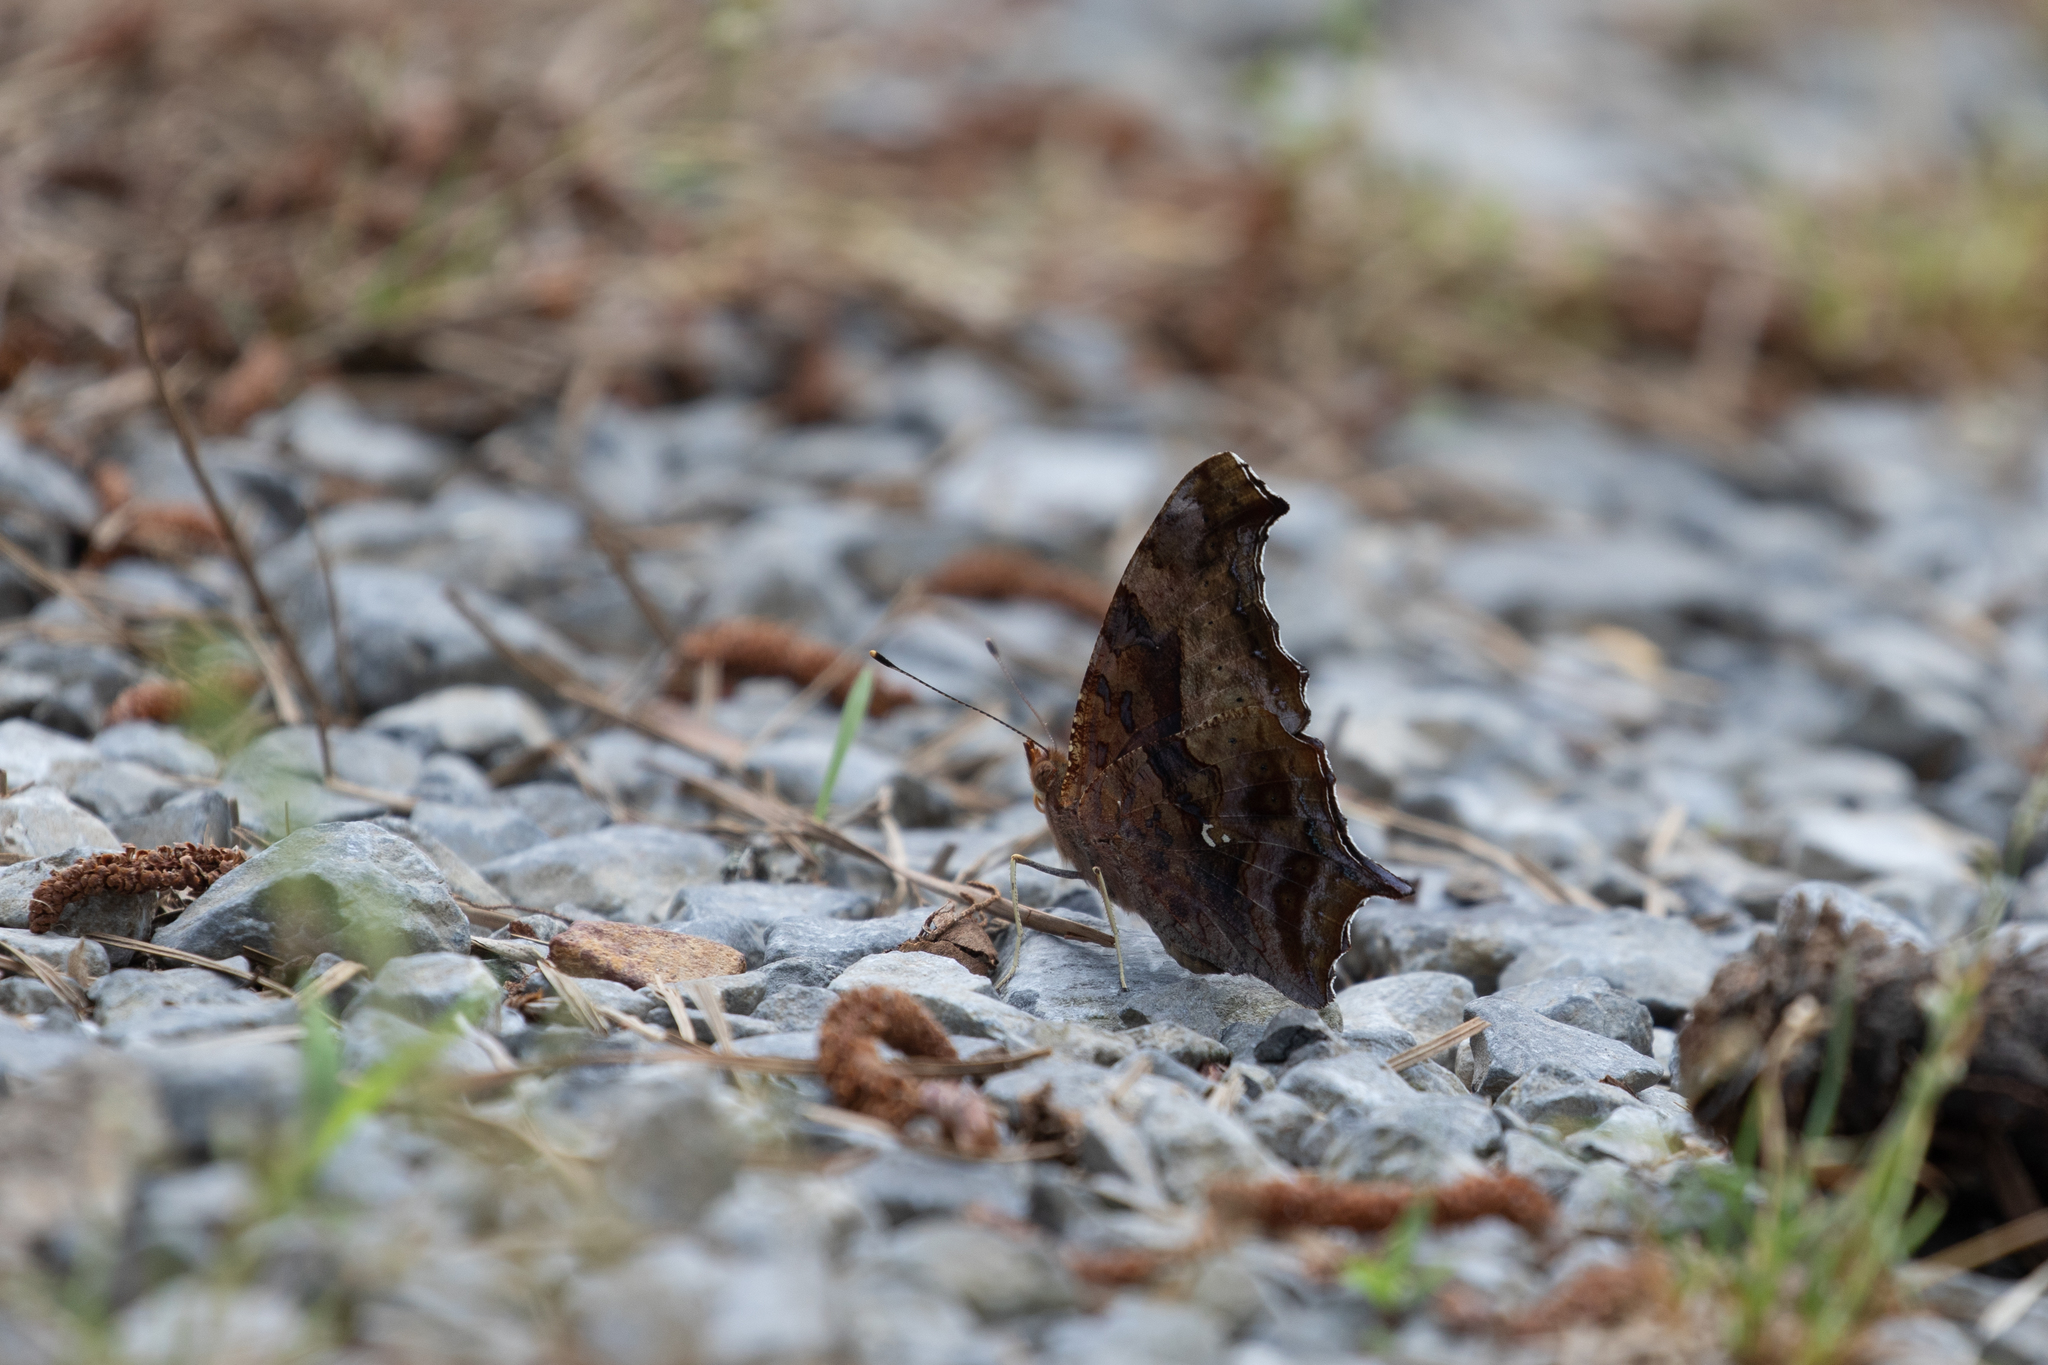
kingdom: Animalia
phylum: Arthropoda
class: Insecta
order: Lepidoptera
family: Nymphalidae
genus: Polygonia
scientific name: Polygonia interrogationis
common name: Question mark
